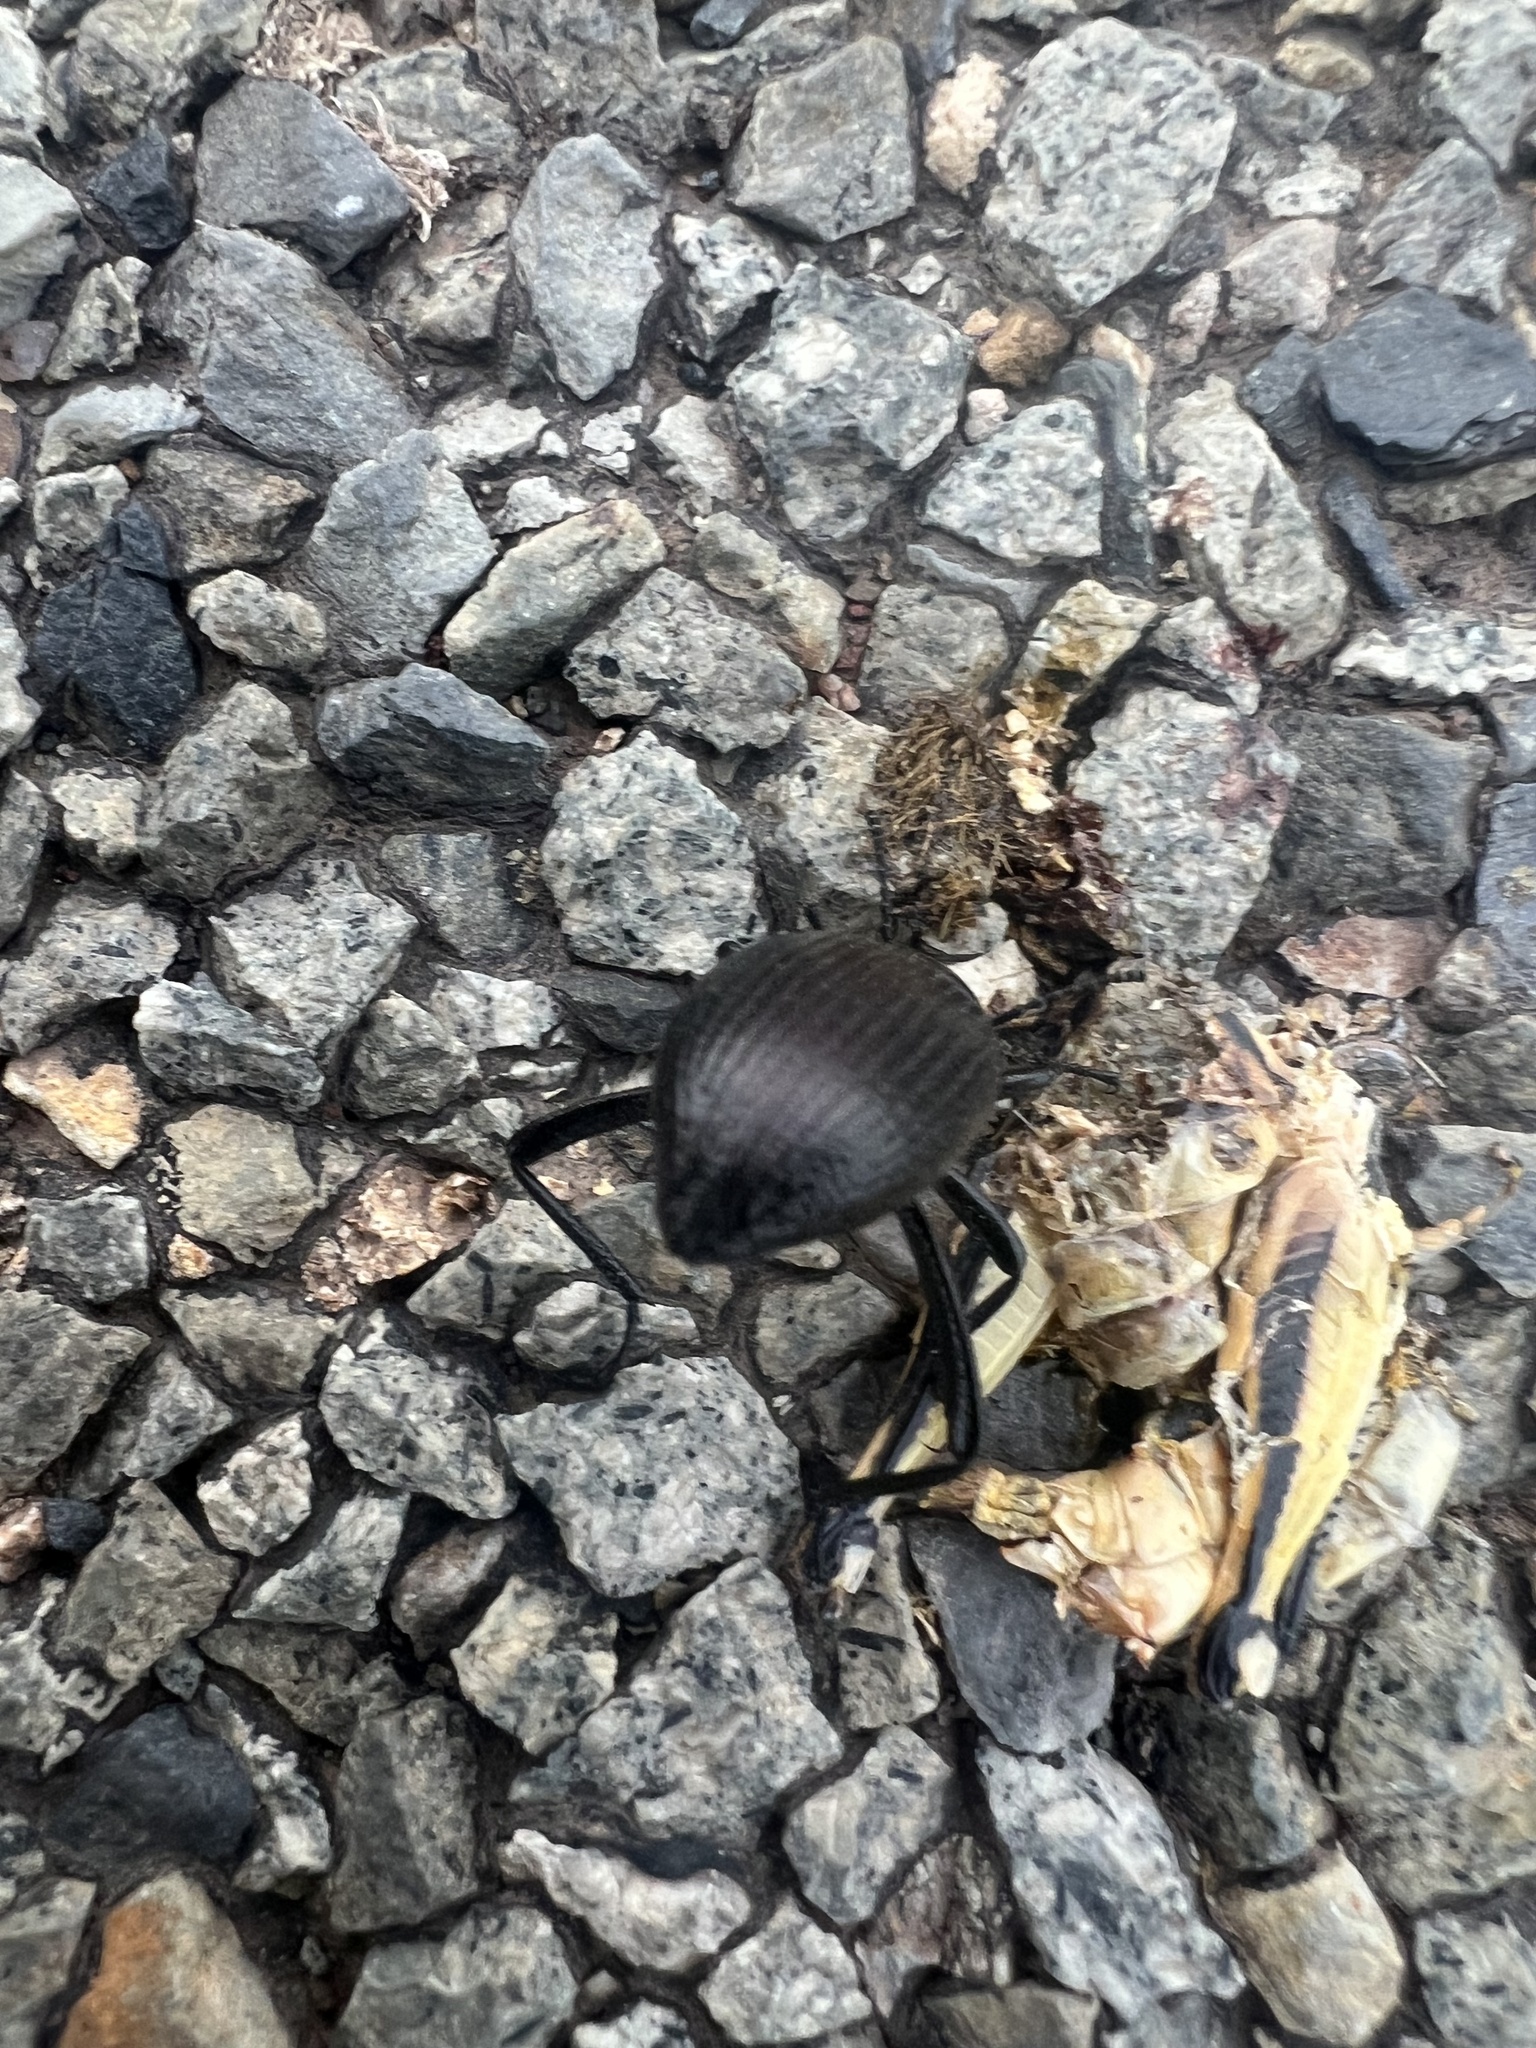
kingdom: Animalia
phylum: Arthropoda
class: Insecta
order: Coleoptera
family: Tenebrionidae
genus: Eleodes
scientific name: Eleodes hispilabris
